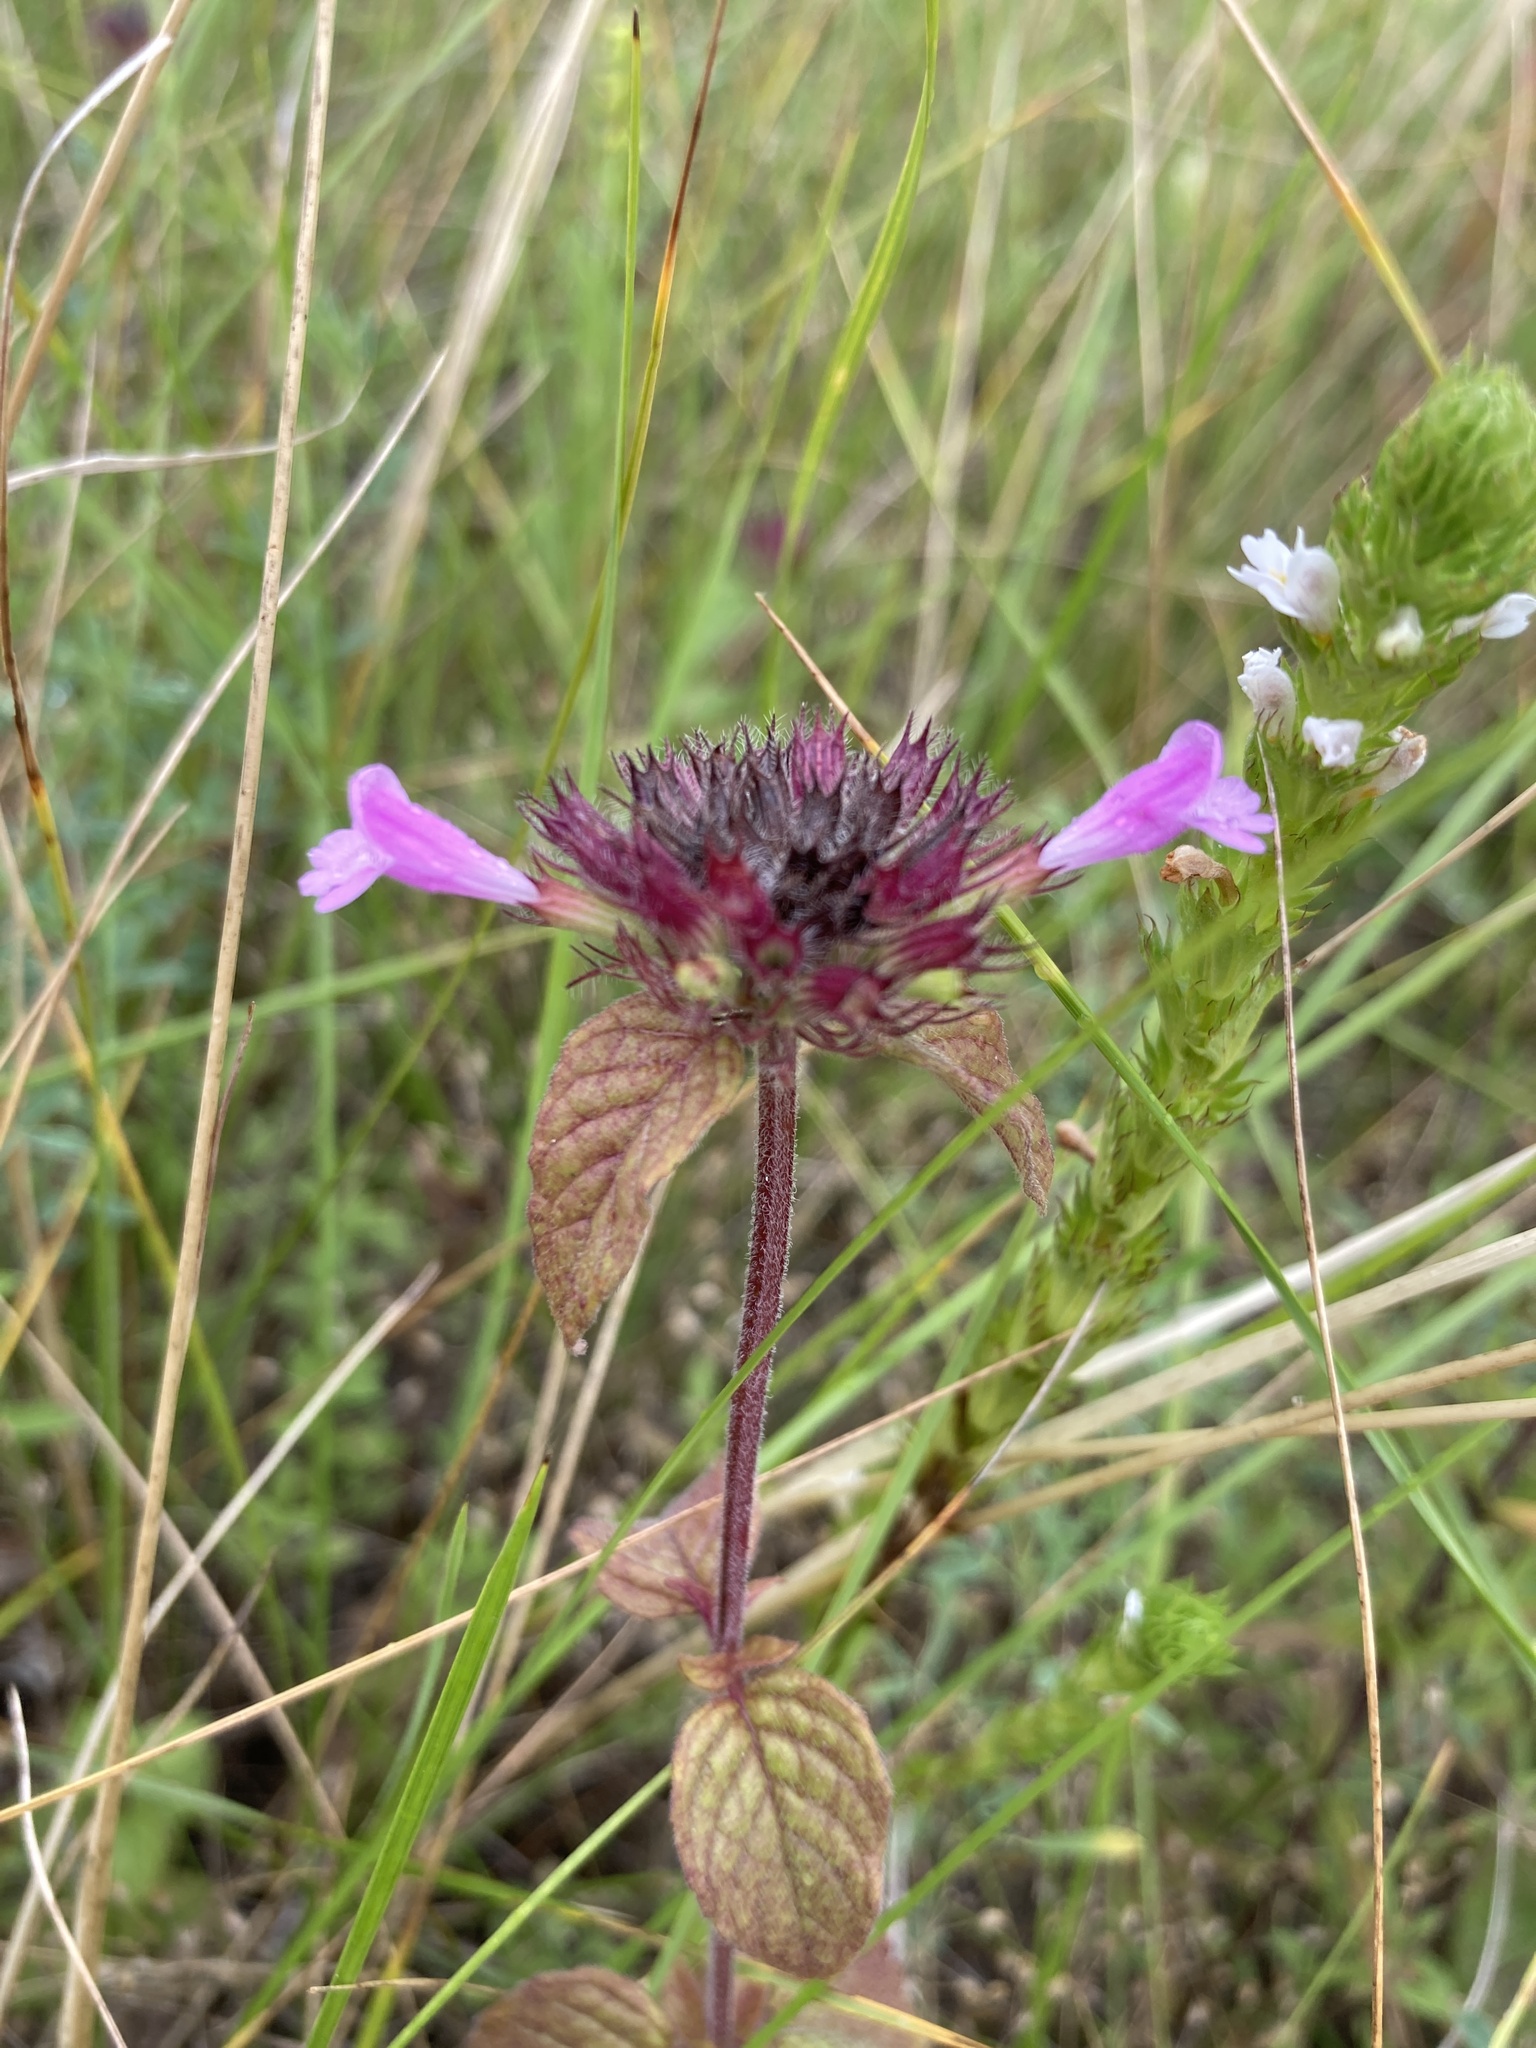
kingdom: Plantae
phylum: Tracheophyta
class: Magnoliopsida
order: Lamiales
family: Lamiaceae
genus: Clinopodium
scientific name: Clinopodium vulgare
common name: Wild basil
